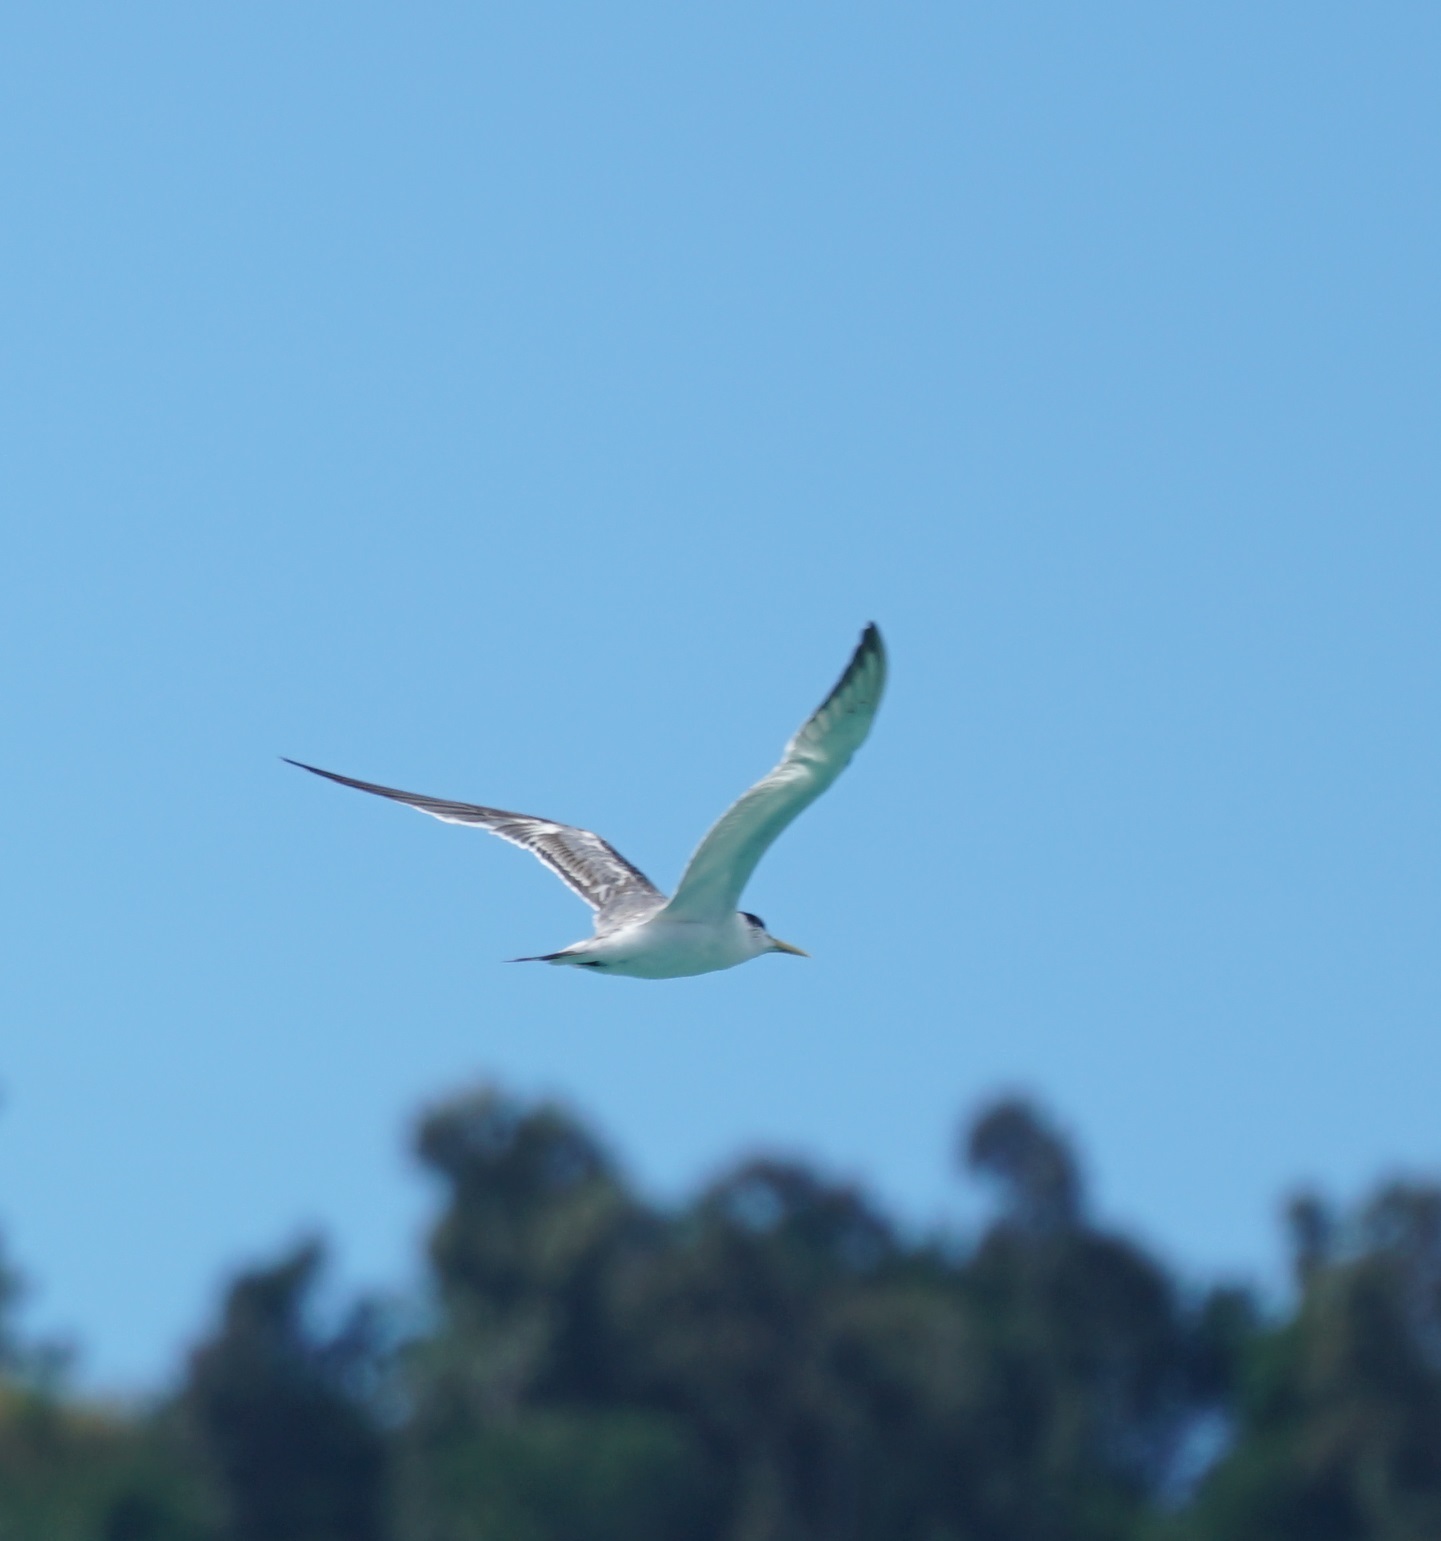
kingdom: Animalia
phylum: Chordata
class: Aves
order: Charadriiformes
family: Laridae
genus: Thalasseus
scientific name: Thalasseus bergii
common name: Greater crested tern
